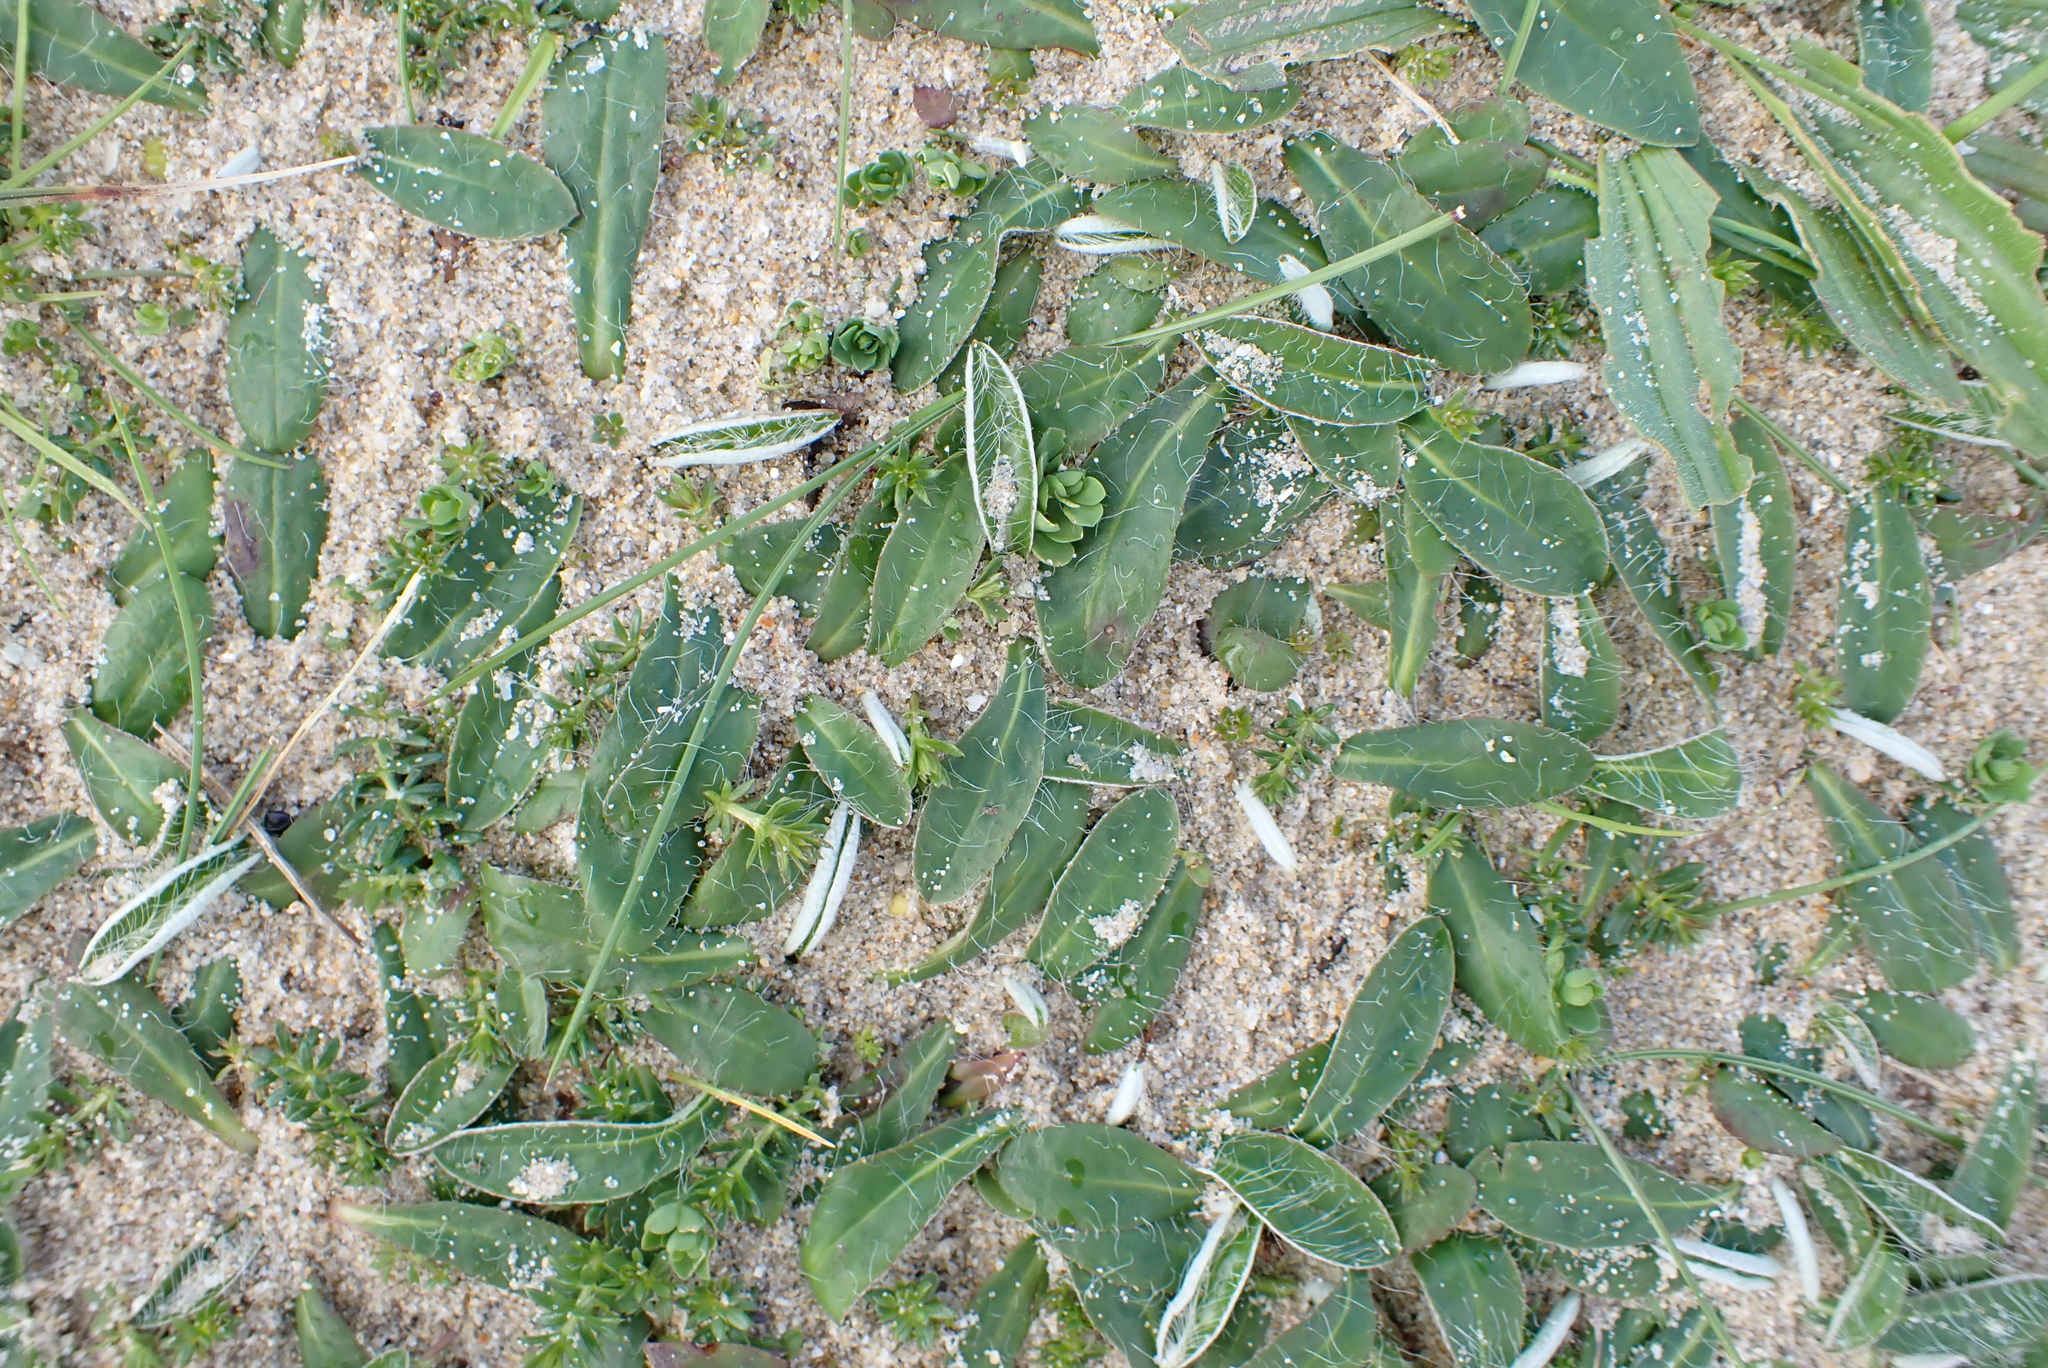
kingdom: Plantae
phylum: Tracheophyta
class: Magnoliopsida
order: Asterales
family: Asteraceae
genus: Pilosella
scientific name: Pilosella officinarum
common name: Mouse-ear hawkweed
